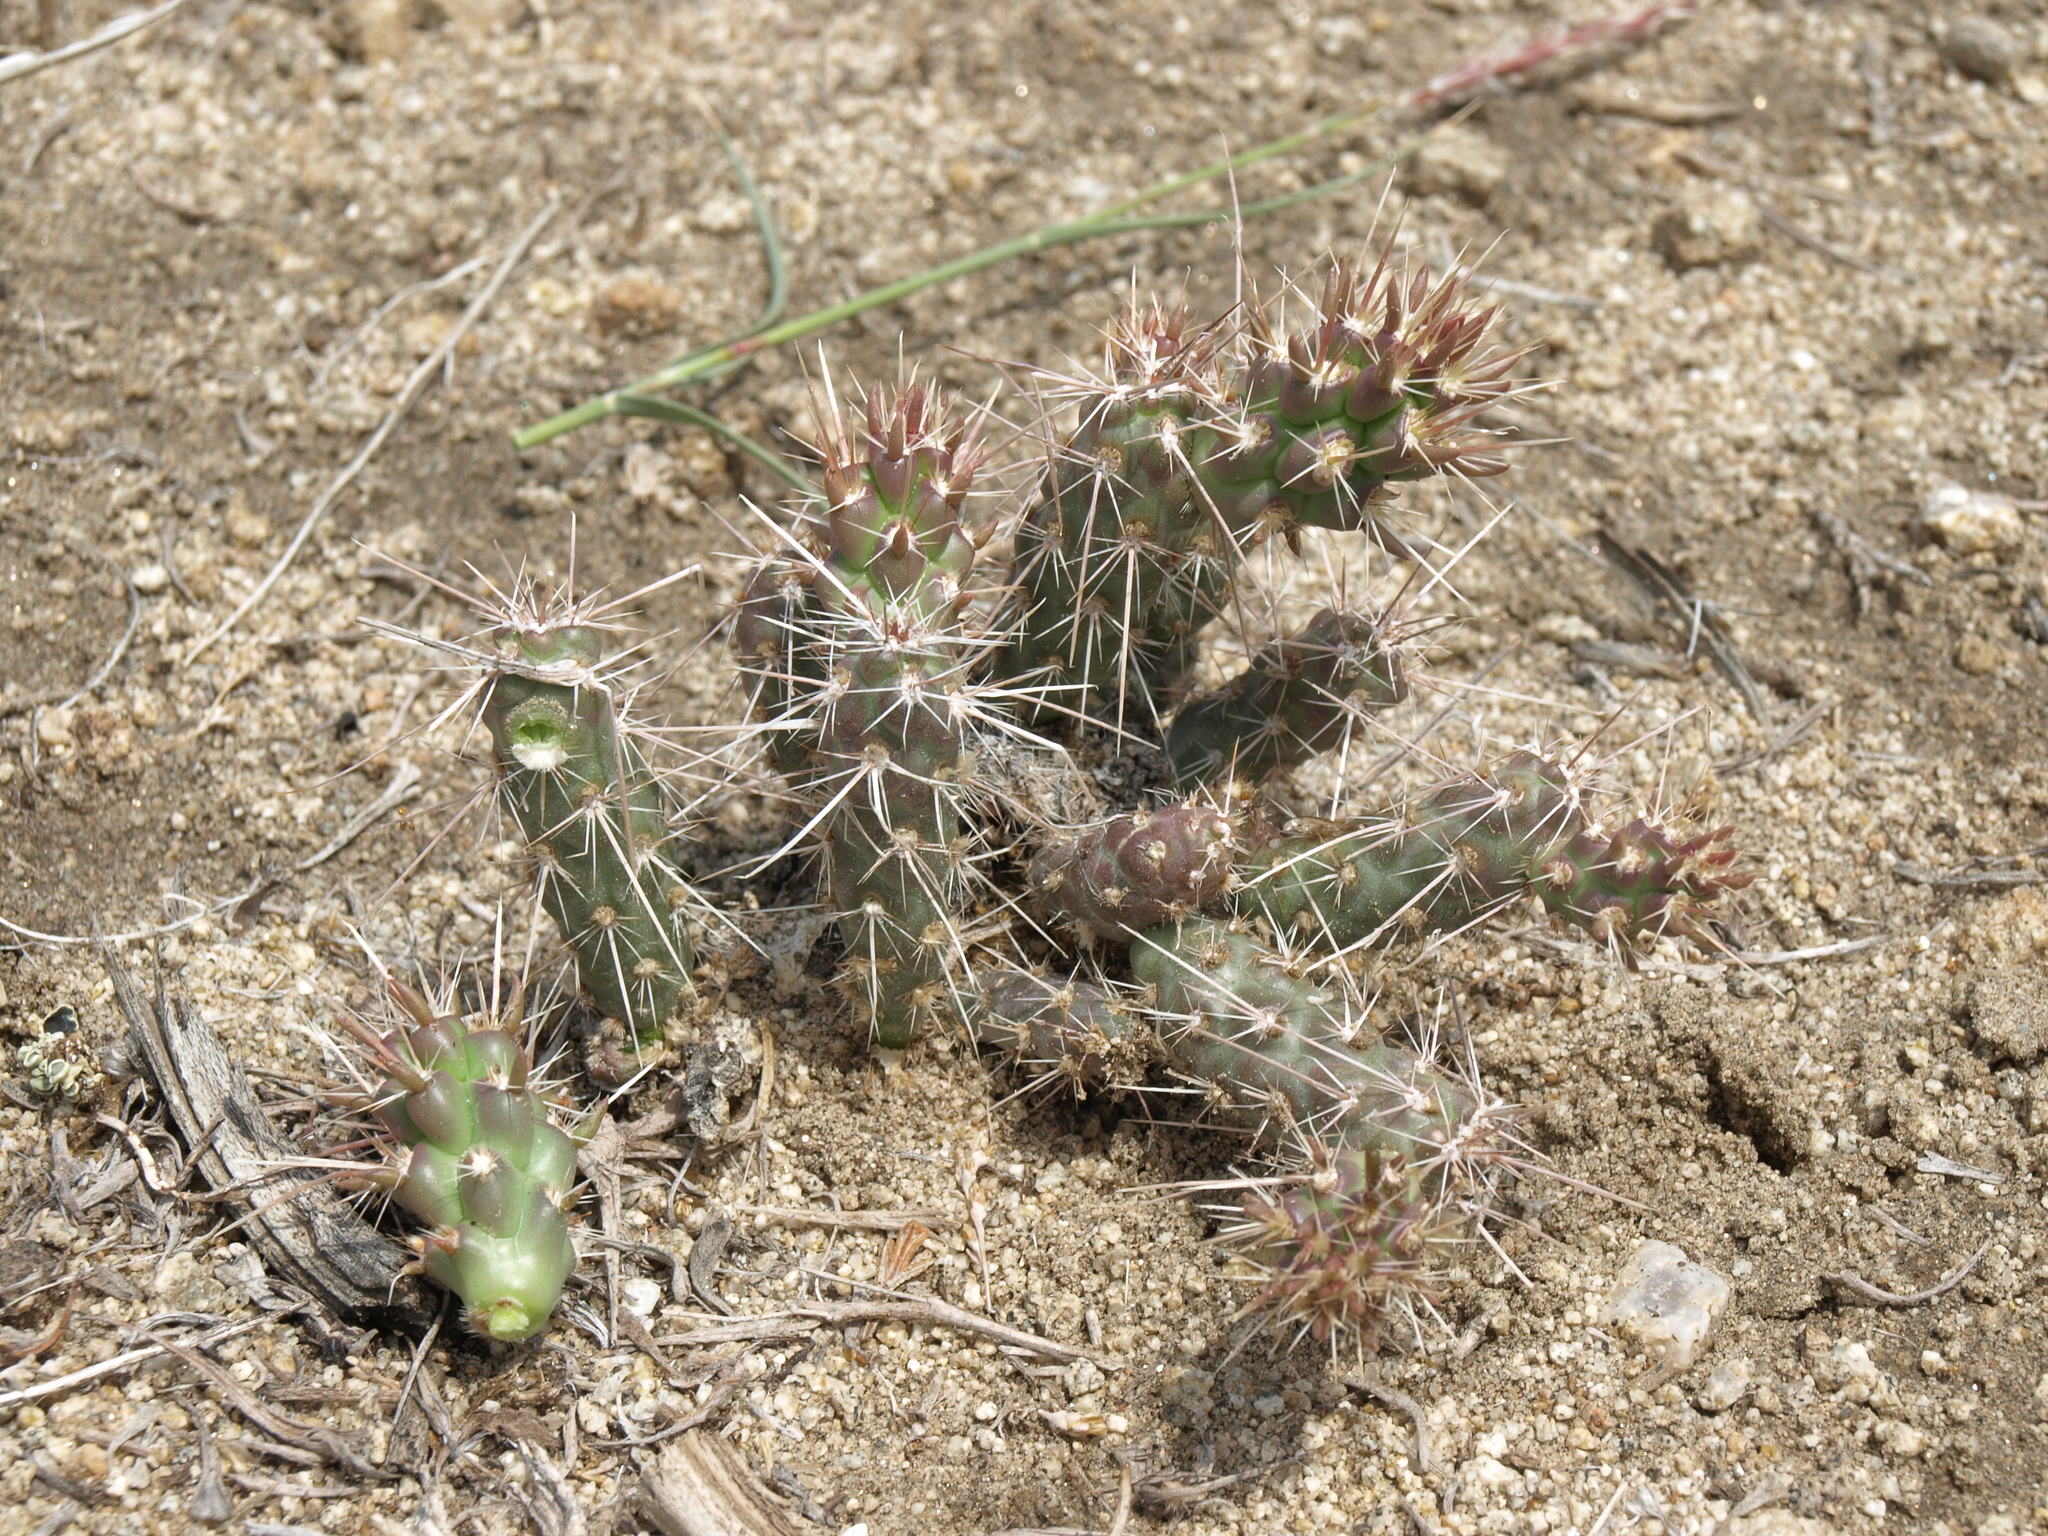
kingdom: Plantae
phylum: Tracheophyta
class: Magnoliopsida
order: Caryophyllales
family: Cactaceae
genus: Micropuntia
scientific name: Micropuntia pulchella
